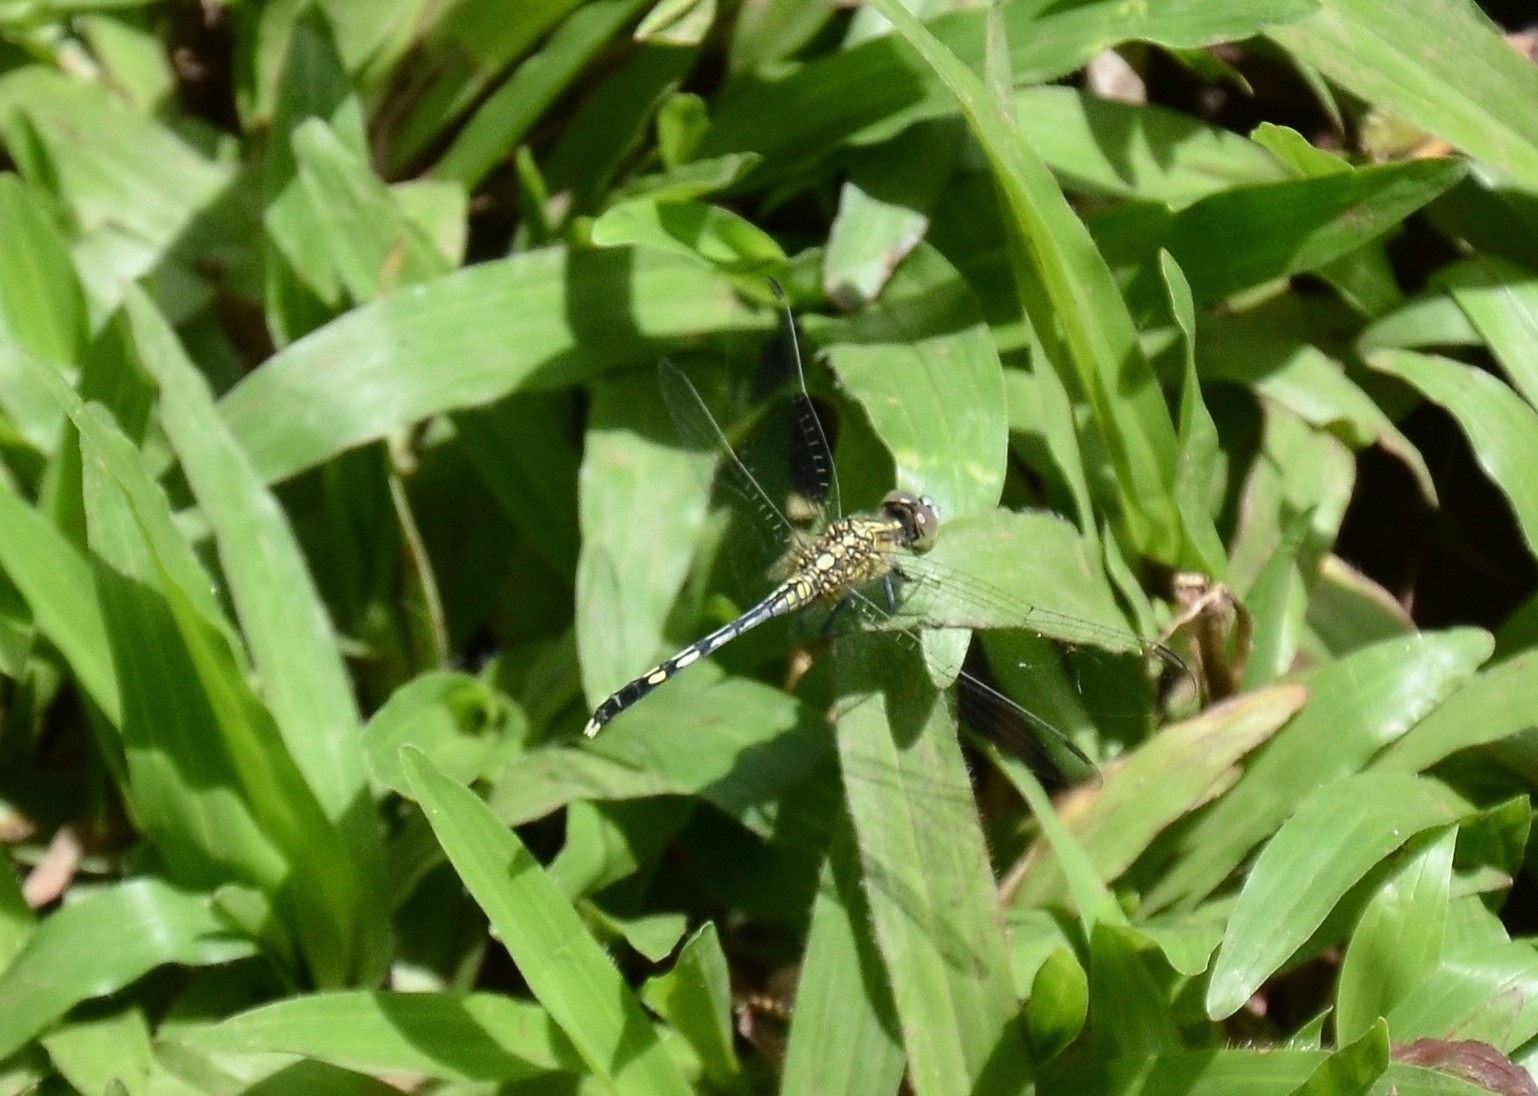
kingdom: Animalia
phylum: Arthropoda
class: Insecta
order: Odonata
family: Libellulidae
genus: Diplacodes
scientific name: Diplacodes trivialis
